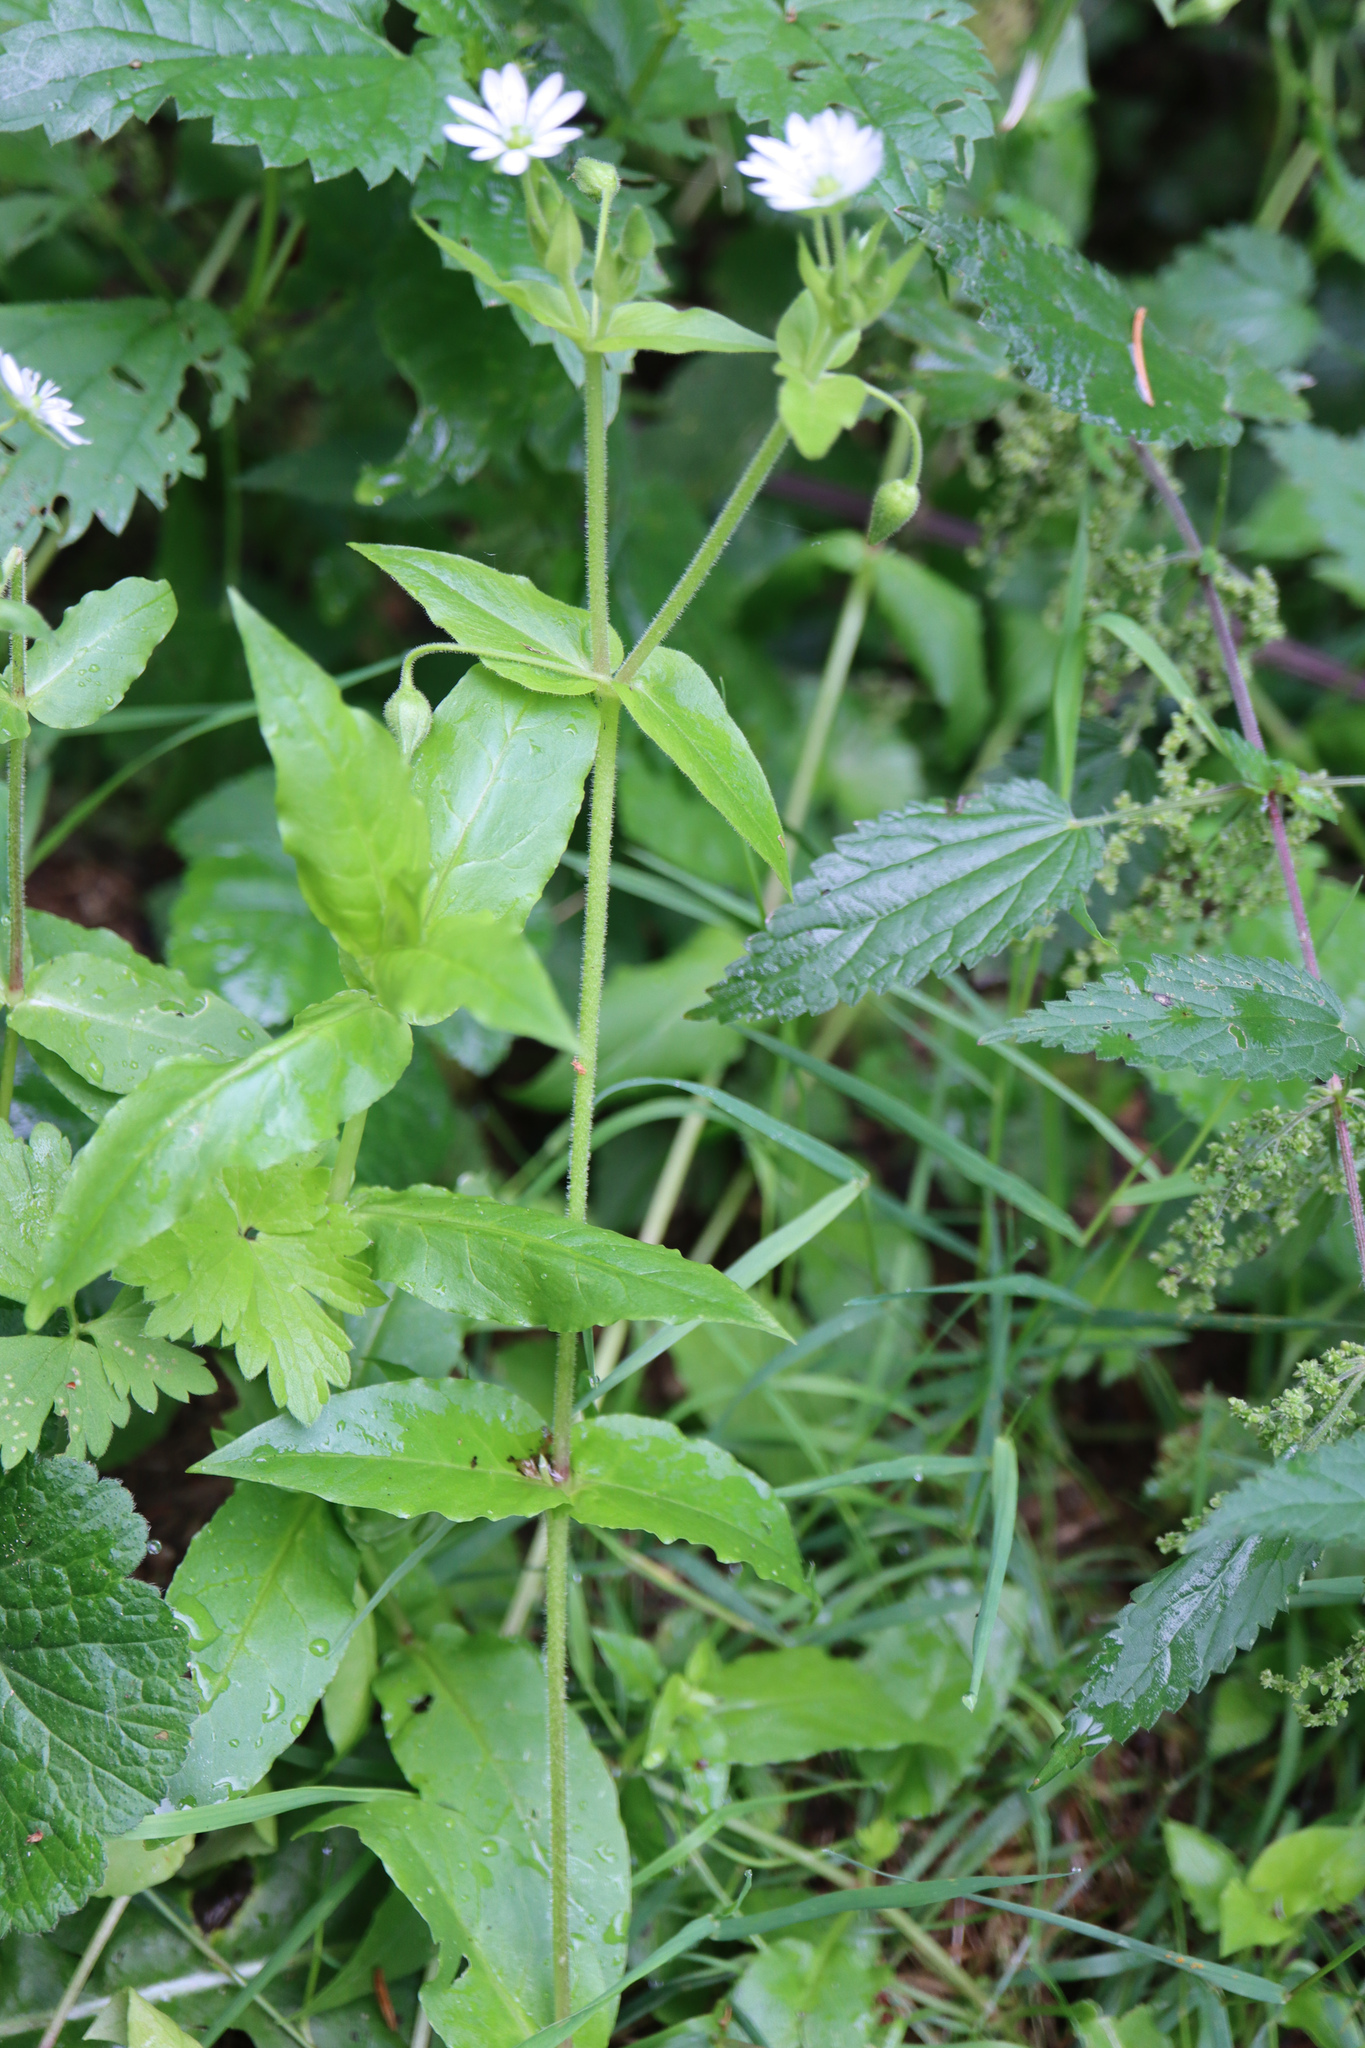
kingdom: Plantae
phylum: Tracheophyta
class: Magnoliopsida
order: Caryophyllales
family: Caryophyllaceae
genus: Stellaria
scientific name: Stellaria aquatica
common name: Water chickweed
